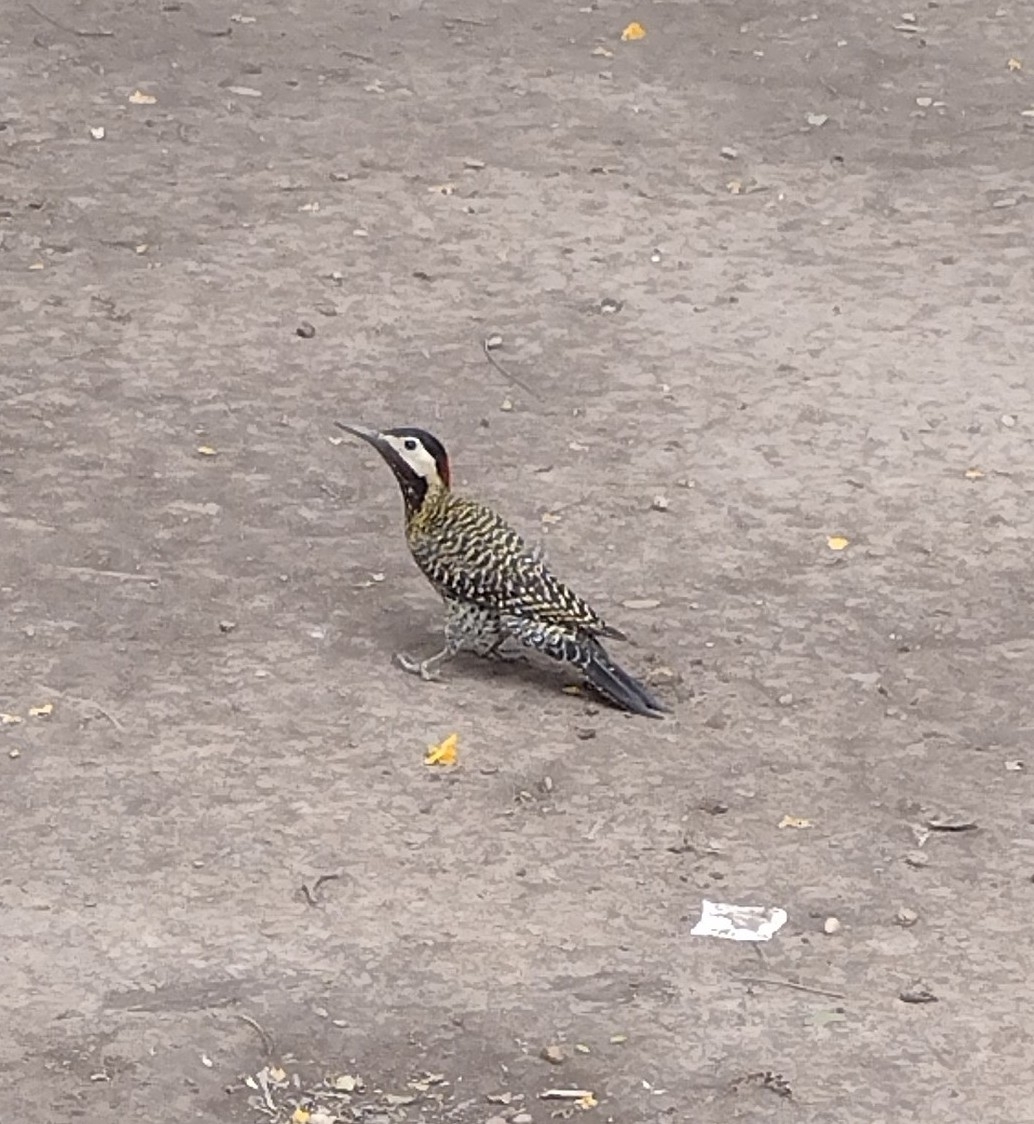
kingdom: Animalia
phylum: Chordata
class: Aves
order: Piciformes
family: Picidae
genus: Colaptes
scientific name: Colaptes melanochloros
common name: Green-barred woodpecker
